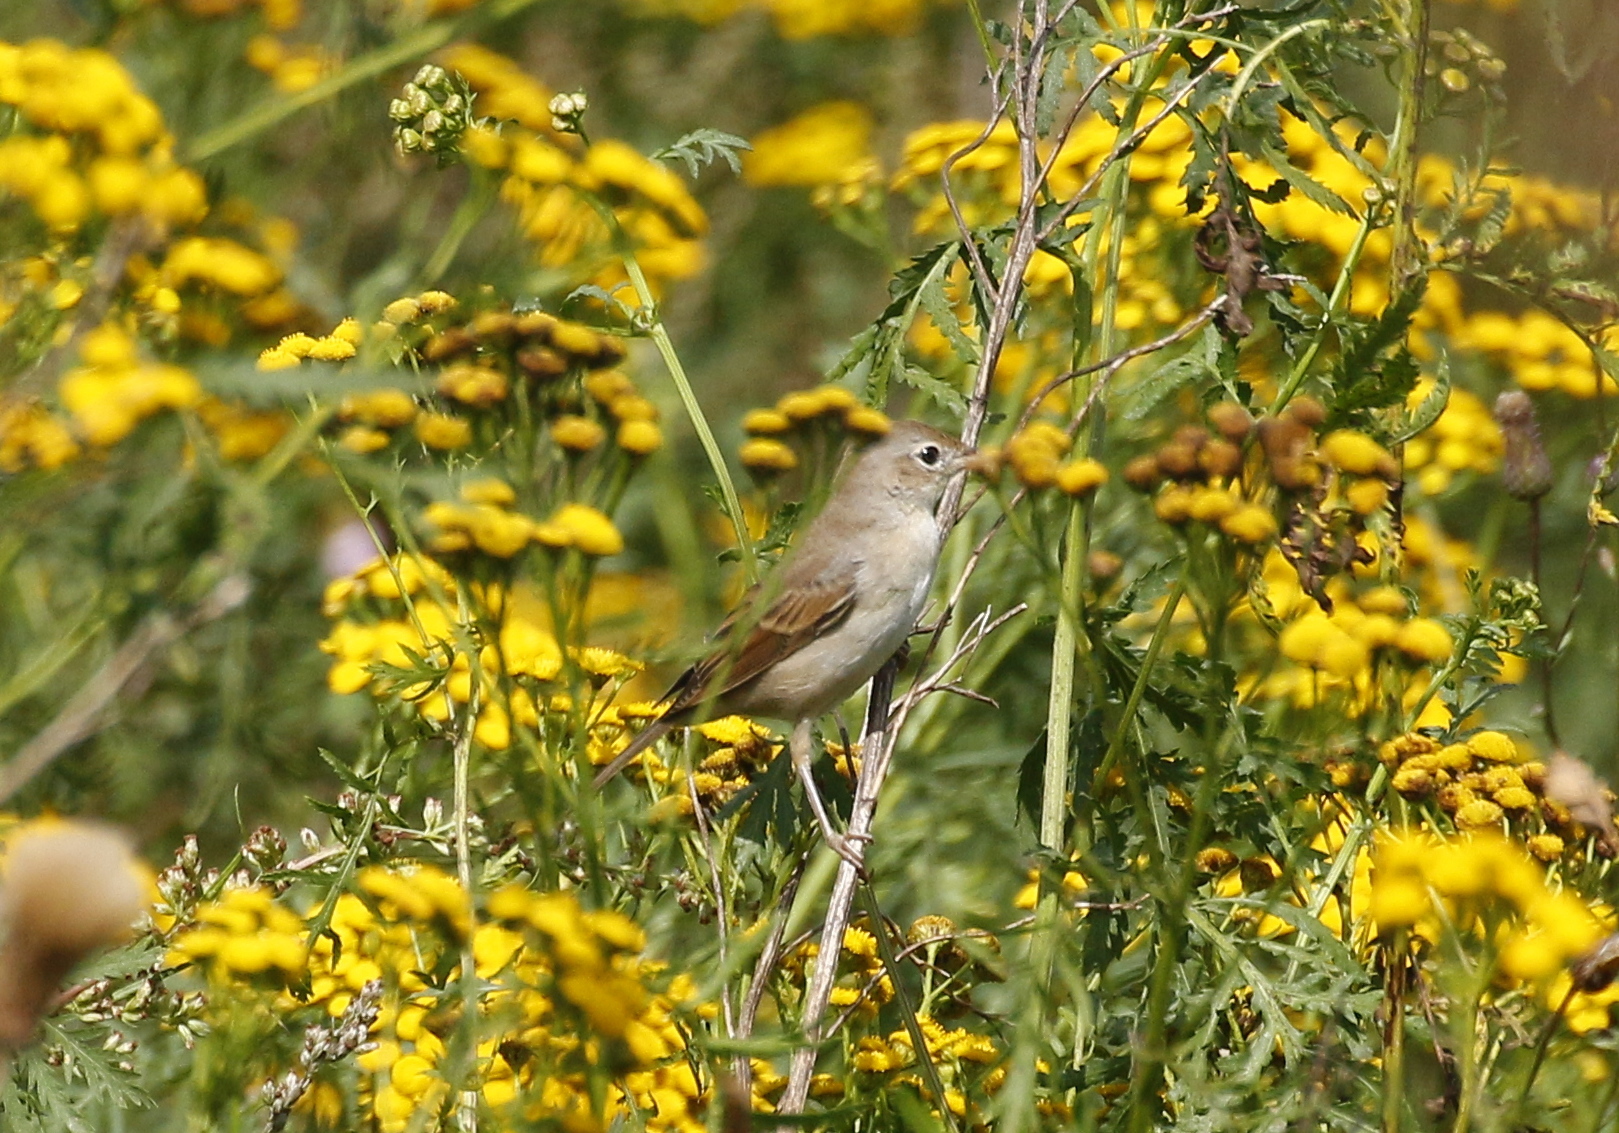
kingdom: Animalia
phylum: Chordata
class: Aves
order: Passeriformes
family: Sylviidae
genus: Sylvia
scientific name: Sylvia communis
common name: Common whitethroat
